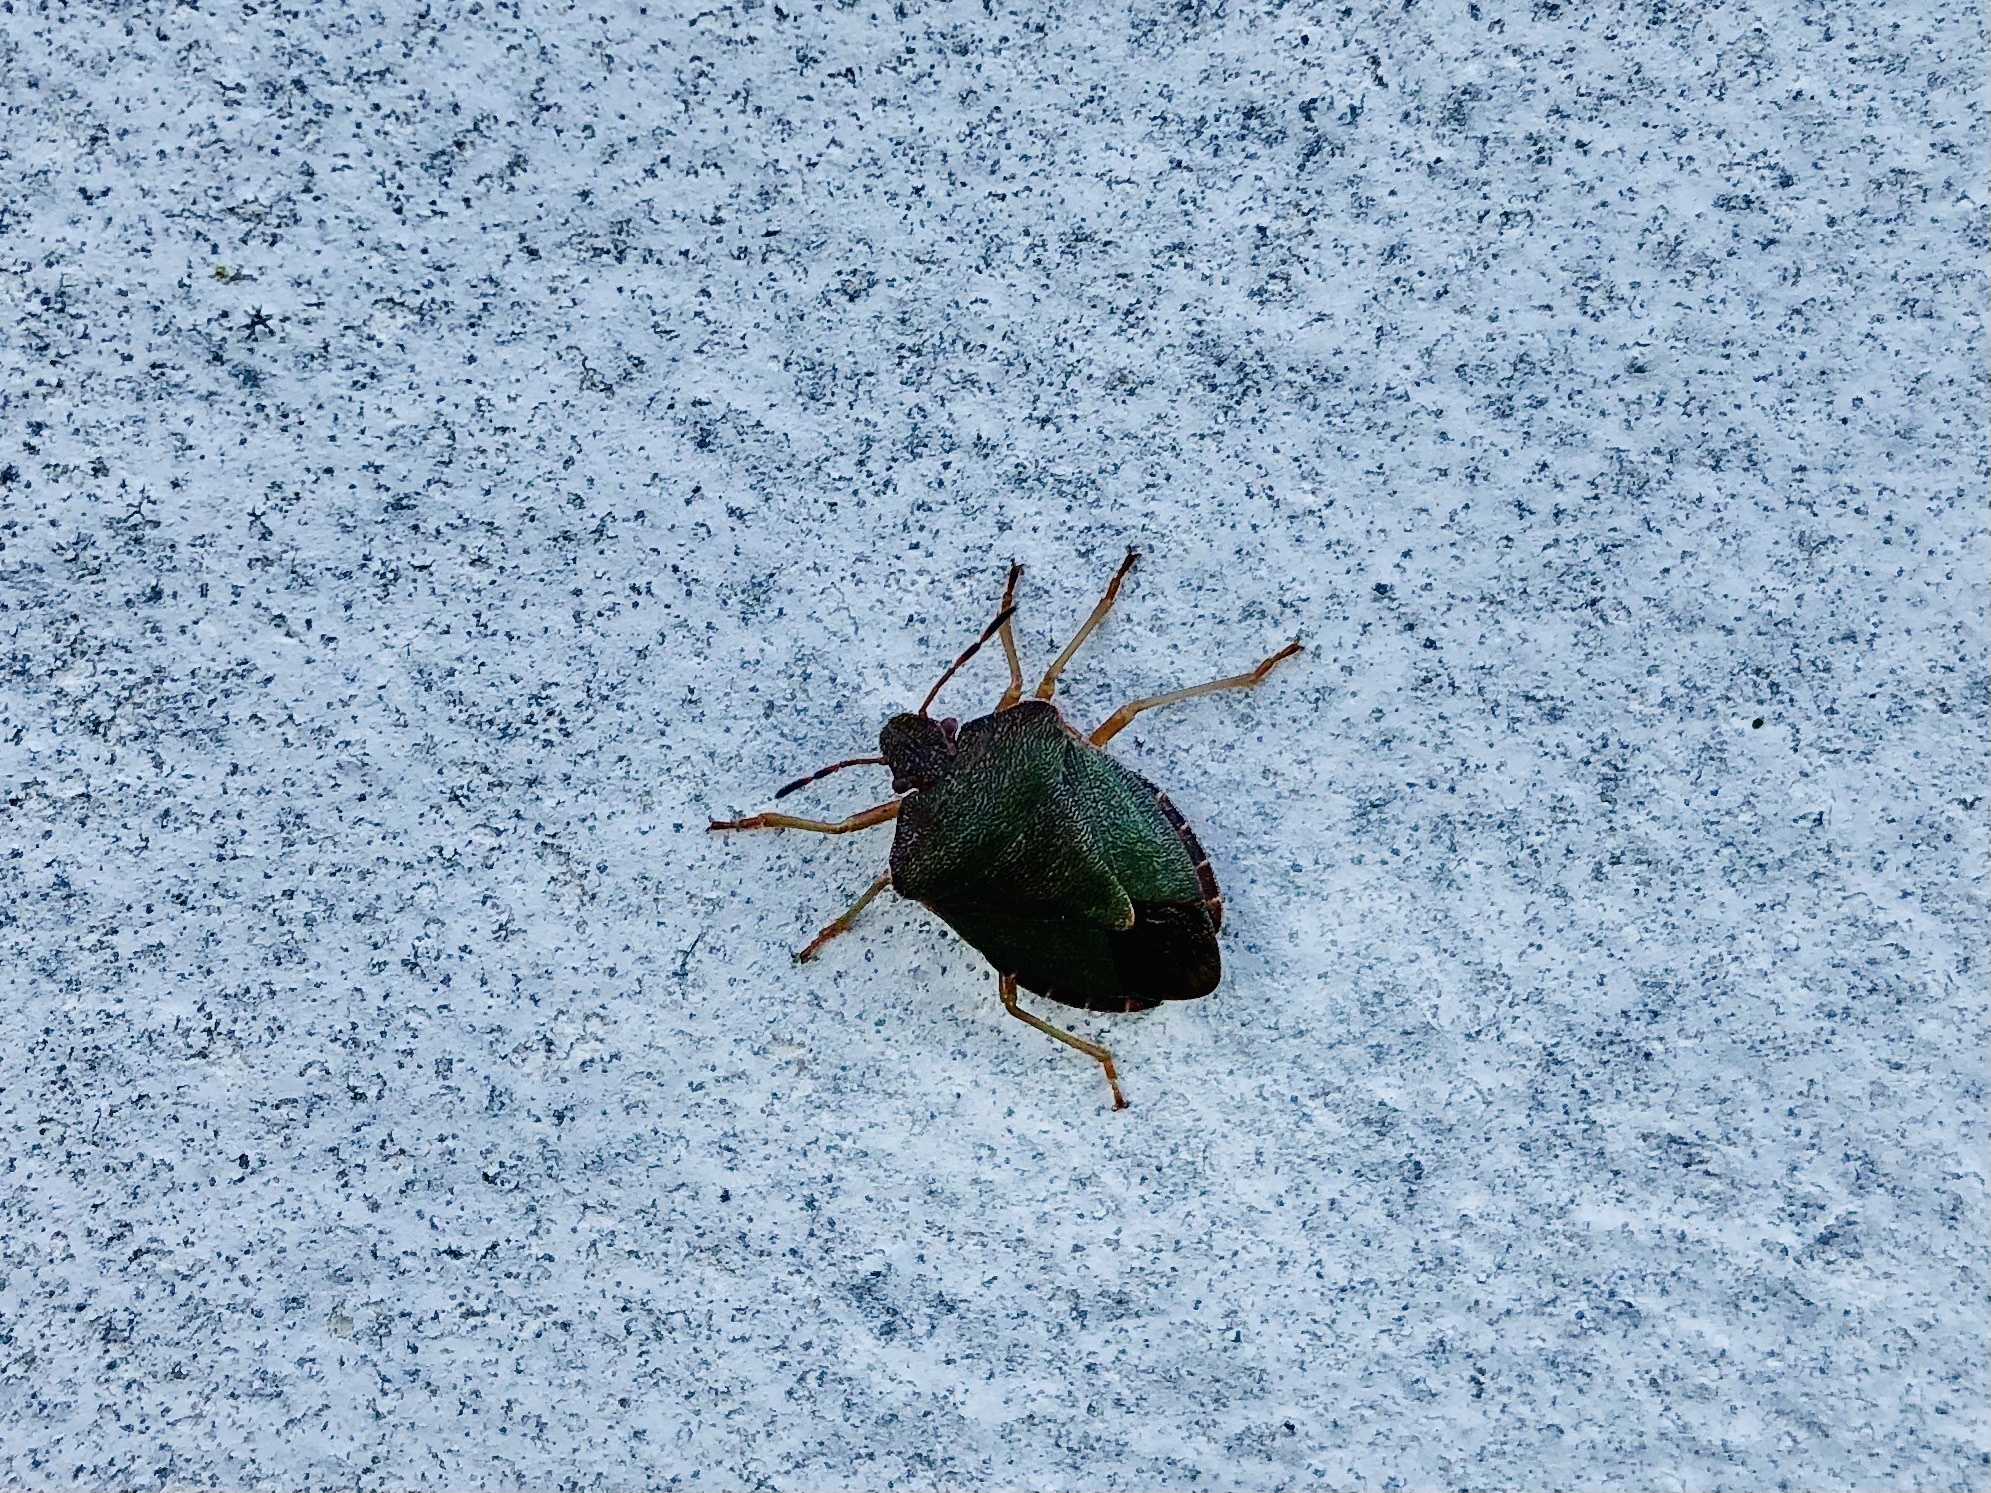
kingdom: Animalia
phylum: Arthropoda
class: Insecta
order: Hemiptera
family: Pentatomidae
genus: Palomena
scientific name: Palomena prasina
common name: Green shieldbug
